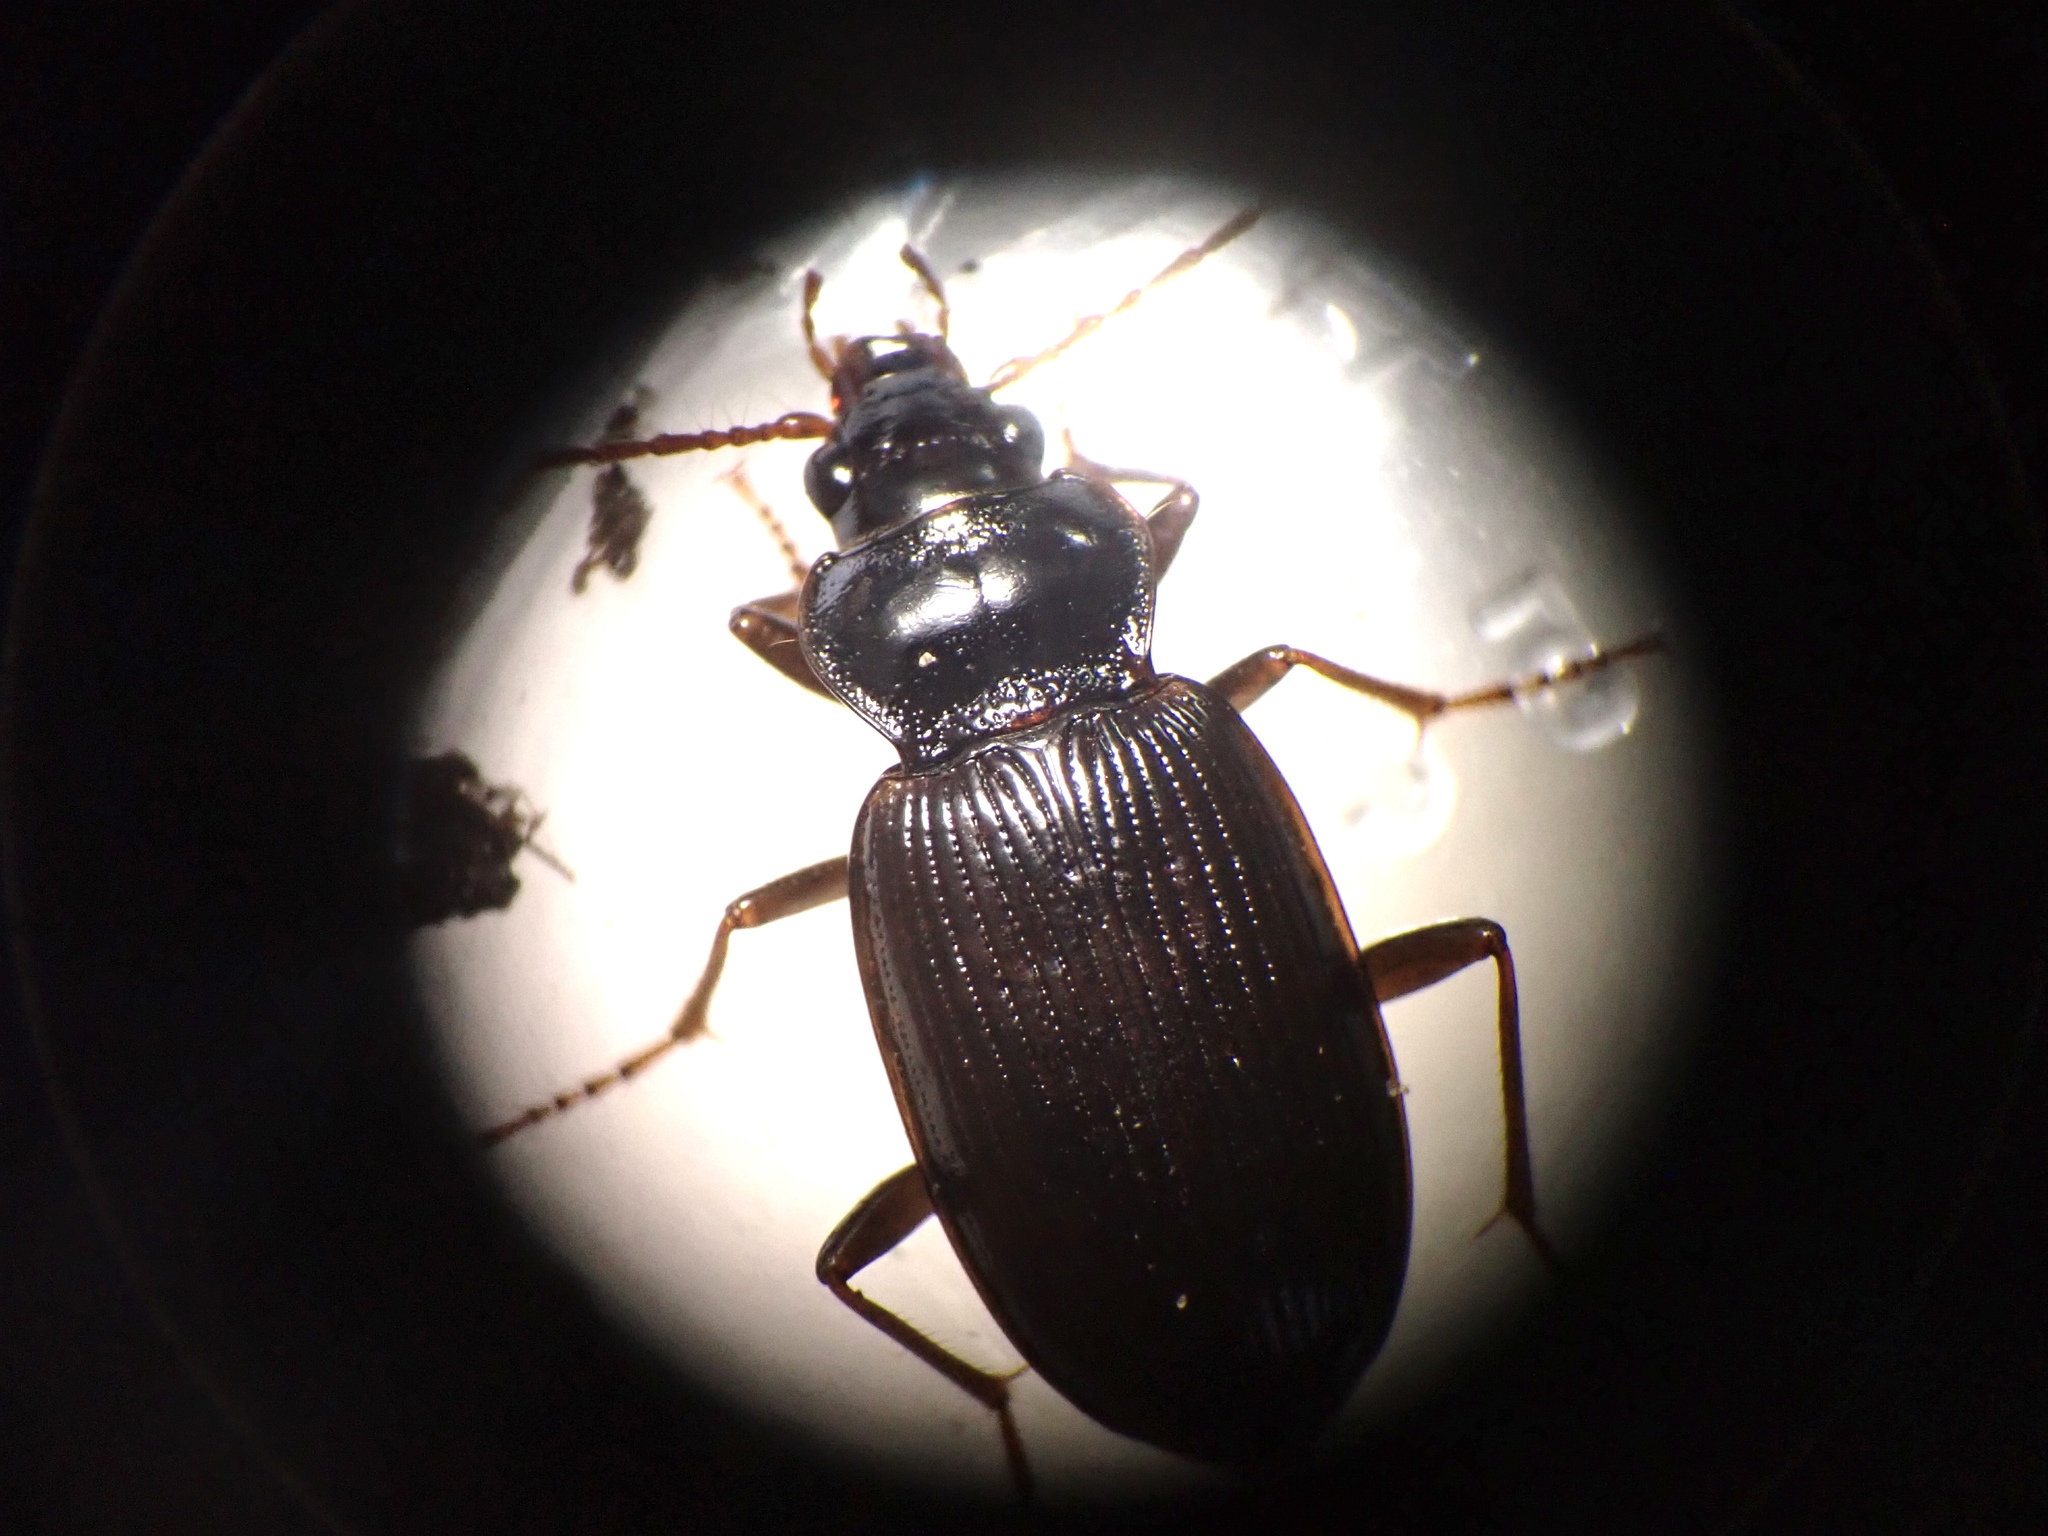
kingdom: Animalia
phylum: Arthropoda
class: Insecta
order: Coleoptera
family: Carabidae
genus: Nebria
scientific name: Nebria brevicollis
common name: Short-necked gazelle beetle
